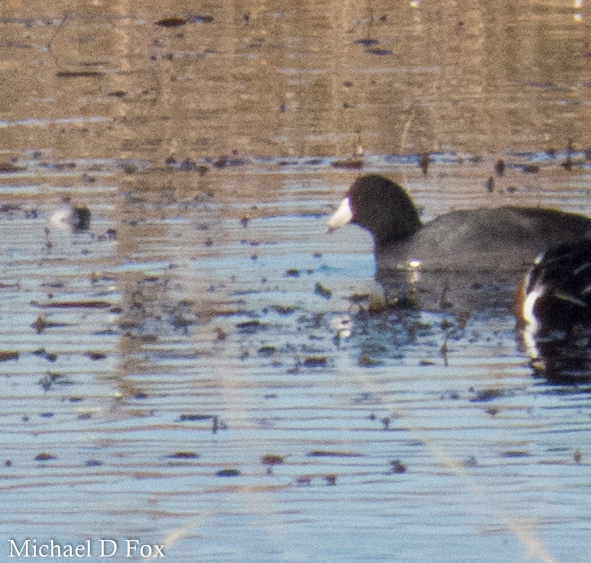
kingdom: Animalia
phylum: Chordata
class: Aves
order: Gruiformes
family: Rallidae
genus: Fulica
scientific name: Fulica americana
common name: American coot
